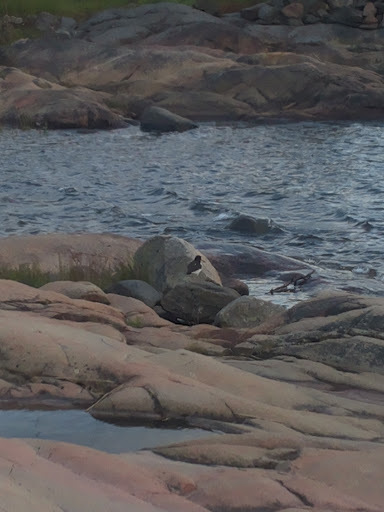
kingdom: Animalia
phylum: Chordata
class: Aves
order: Charadriiformes
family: Haematopodidae
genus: Haematopus
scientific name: Haematopus ostralegus
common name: Eurasian oystercatcher
